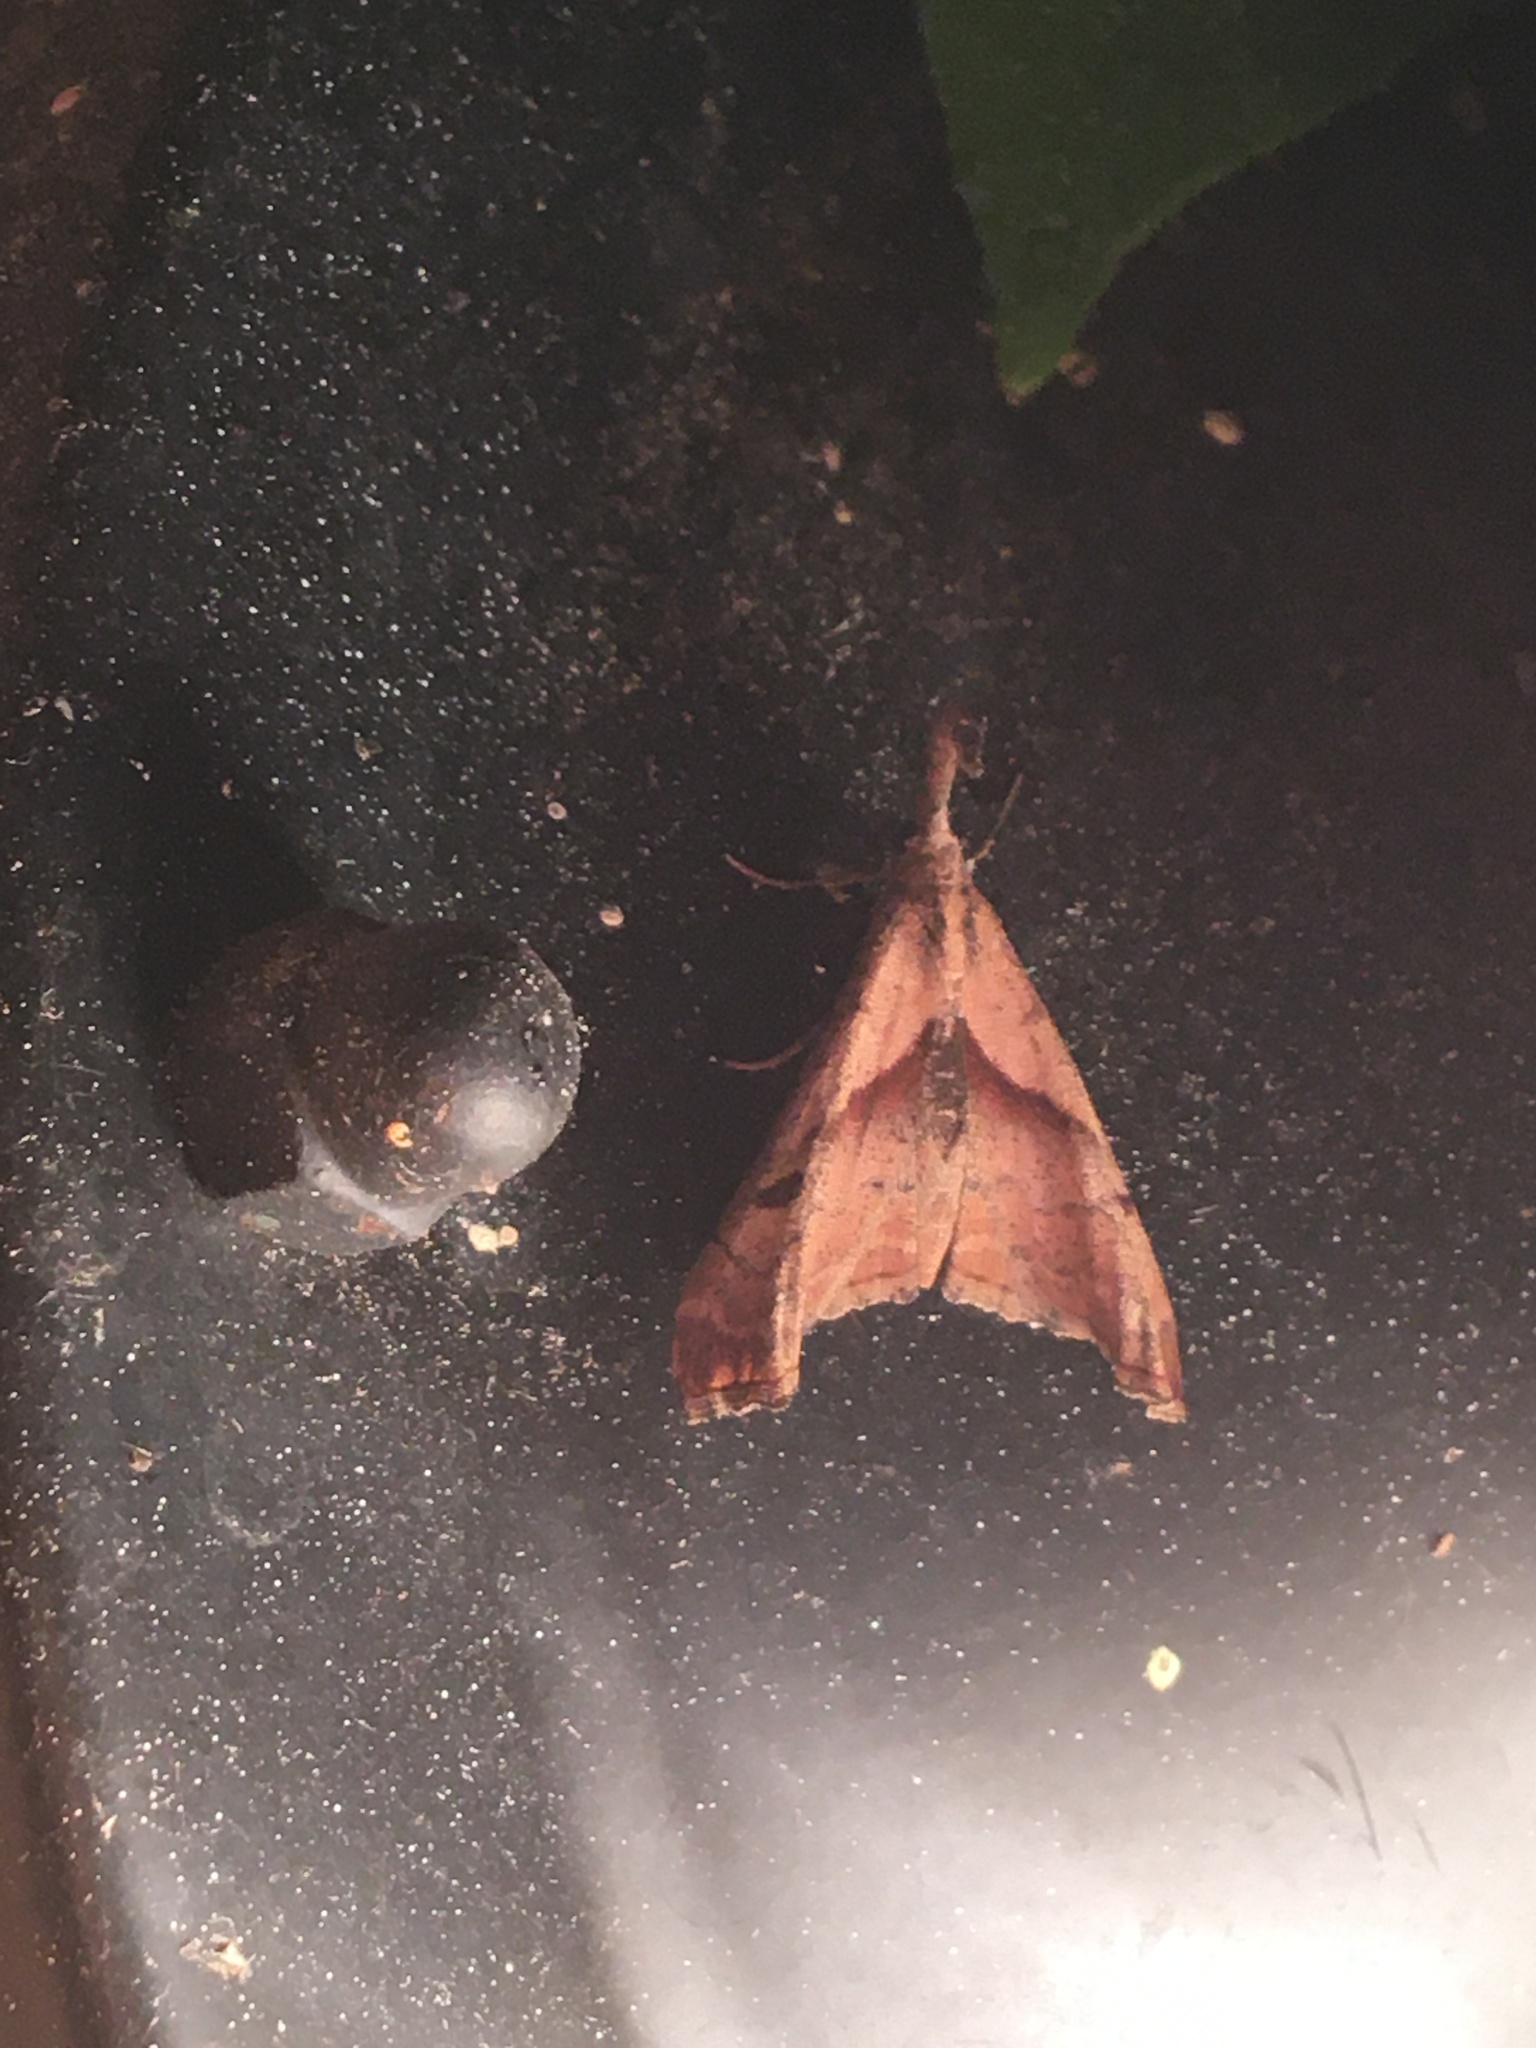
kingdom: Animalia
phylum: Arthropoda
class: Insecta
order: Lepidoptera
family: Erebidae
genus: Palthis
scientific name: Palthis angulalis
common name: Dark-spotted palthis moth
